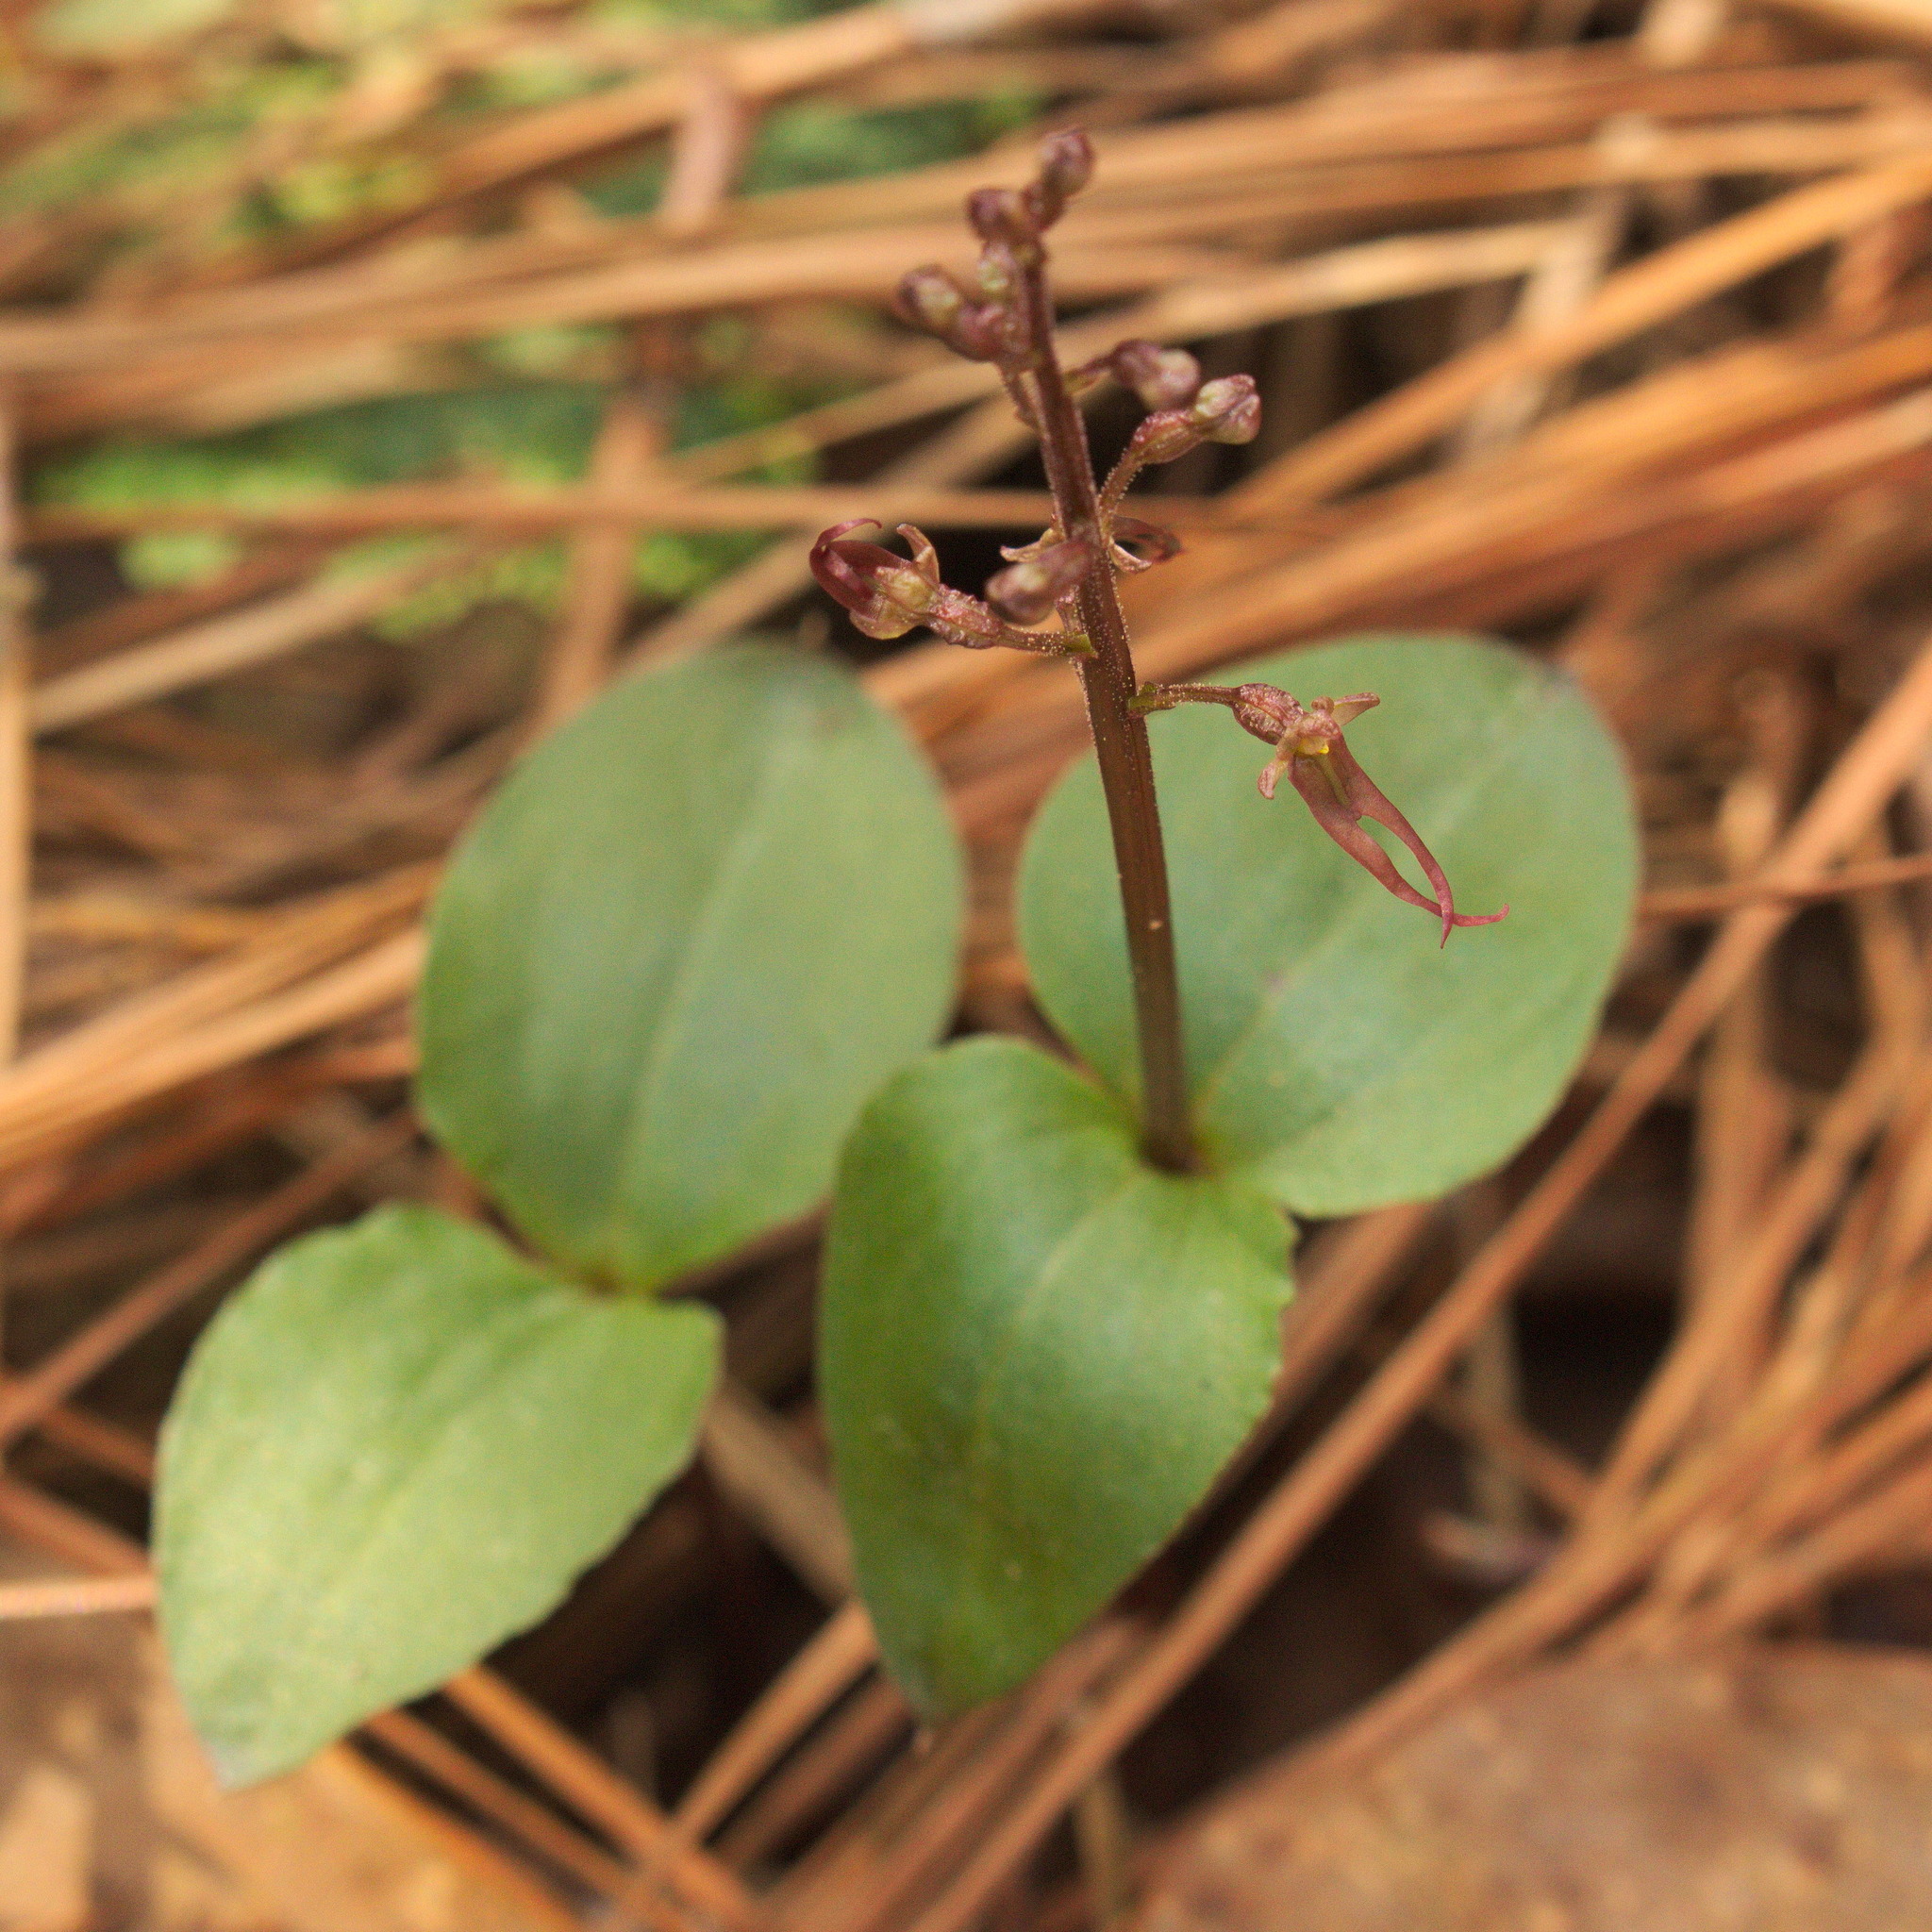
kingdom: Plantae
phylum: Tracheophyta
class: Liliopsida
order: Asparagales
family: Orchidaceae
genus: Neottia
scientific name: Neottia bifolia
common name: Southern twayblade
